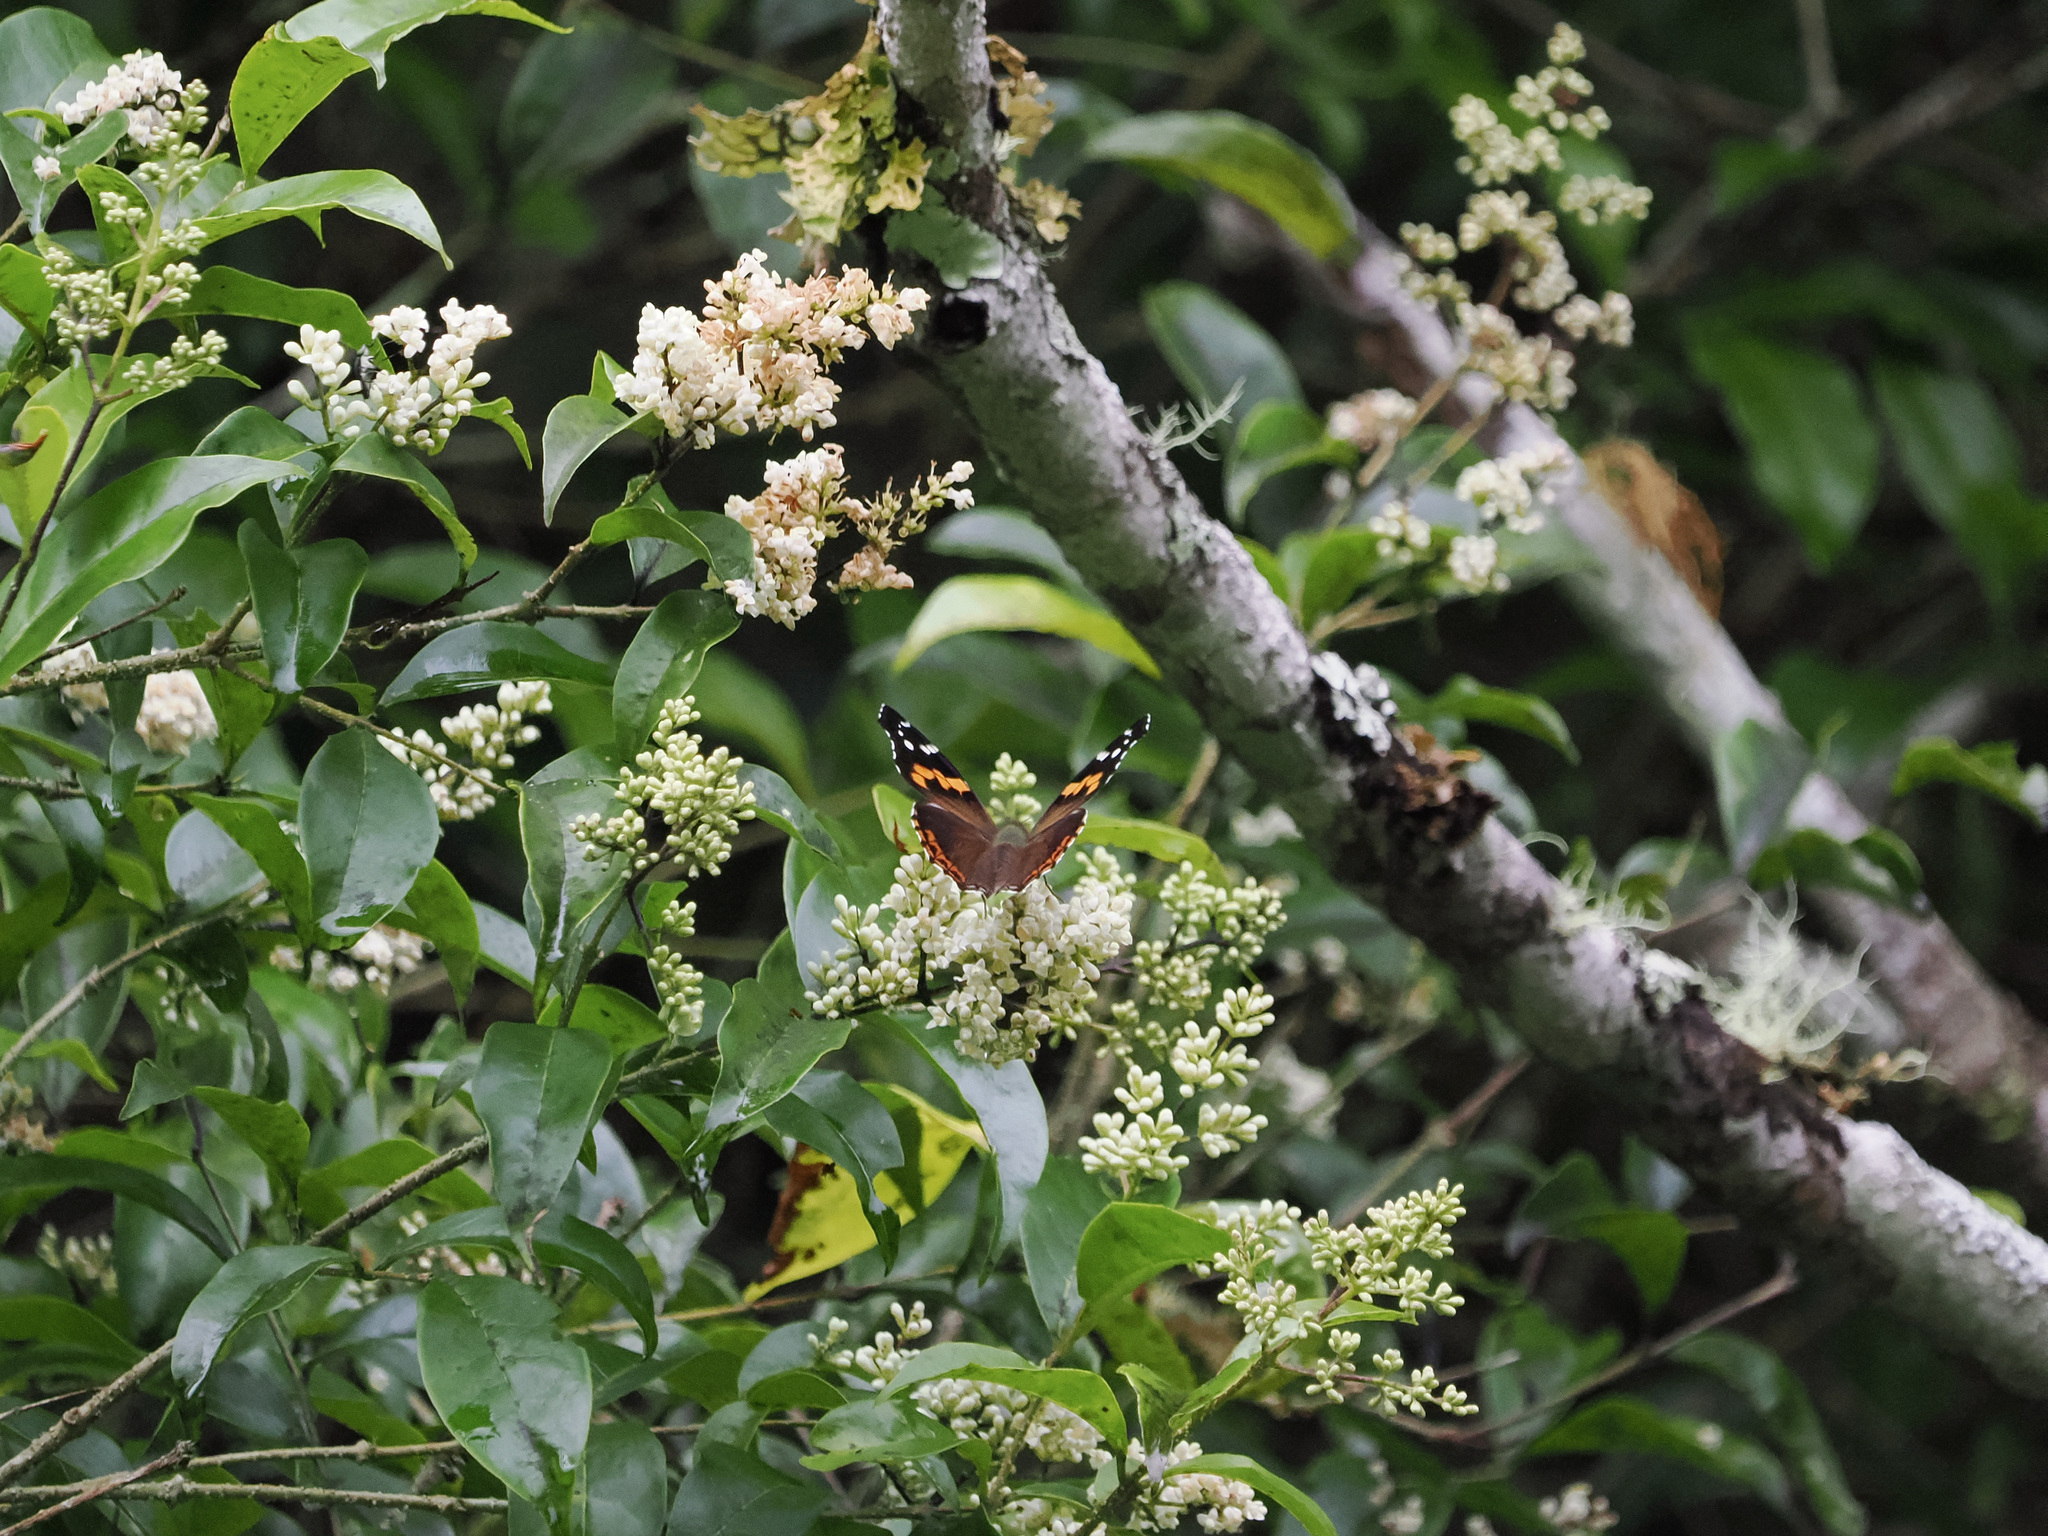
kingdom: Animalia
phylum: Arthropoda
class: Insecta
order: Lepidoptera
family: Nymphalidae
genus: Vanessa
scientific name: Vanessa buana
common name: Lompobatang lady
